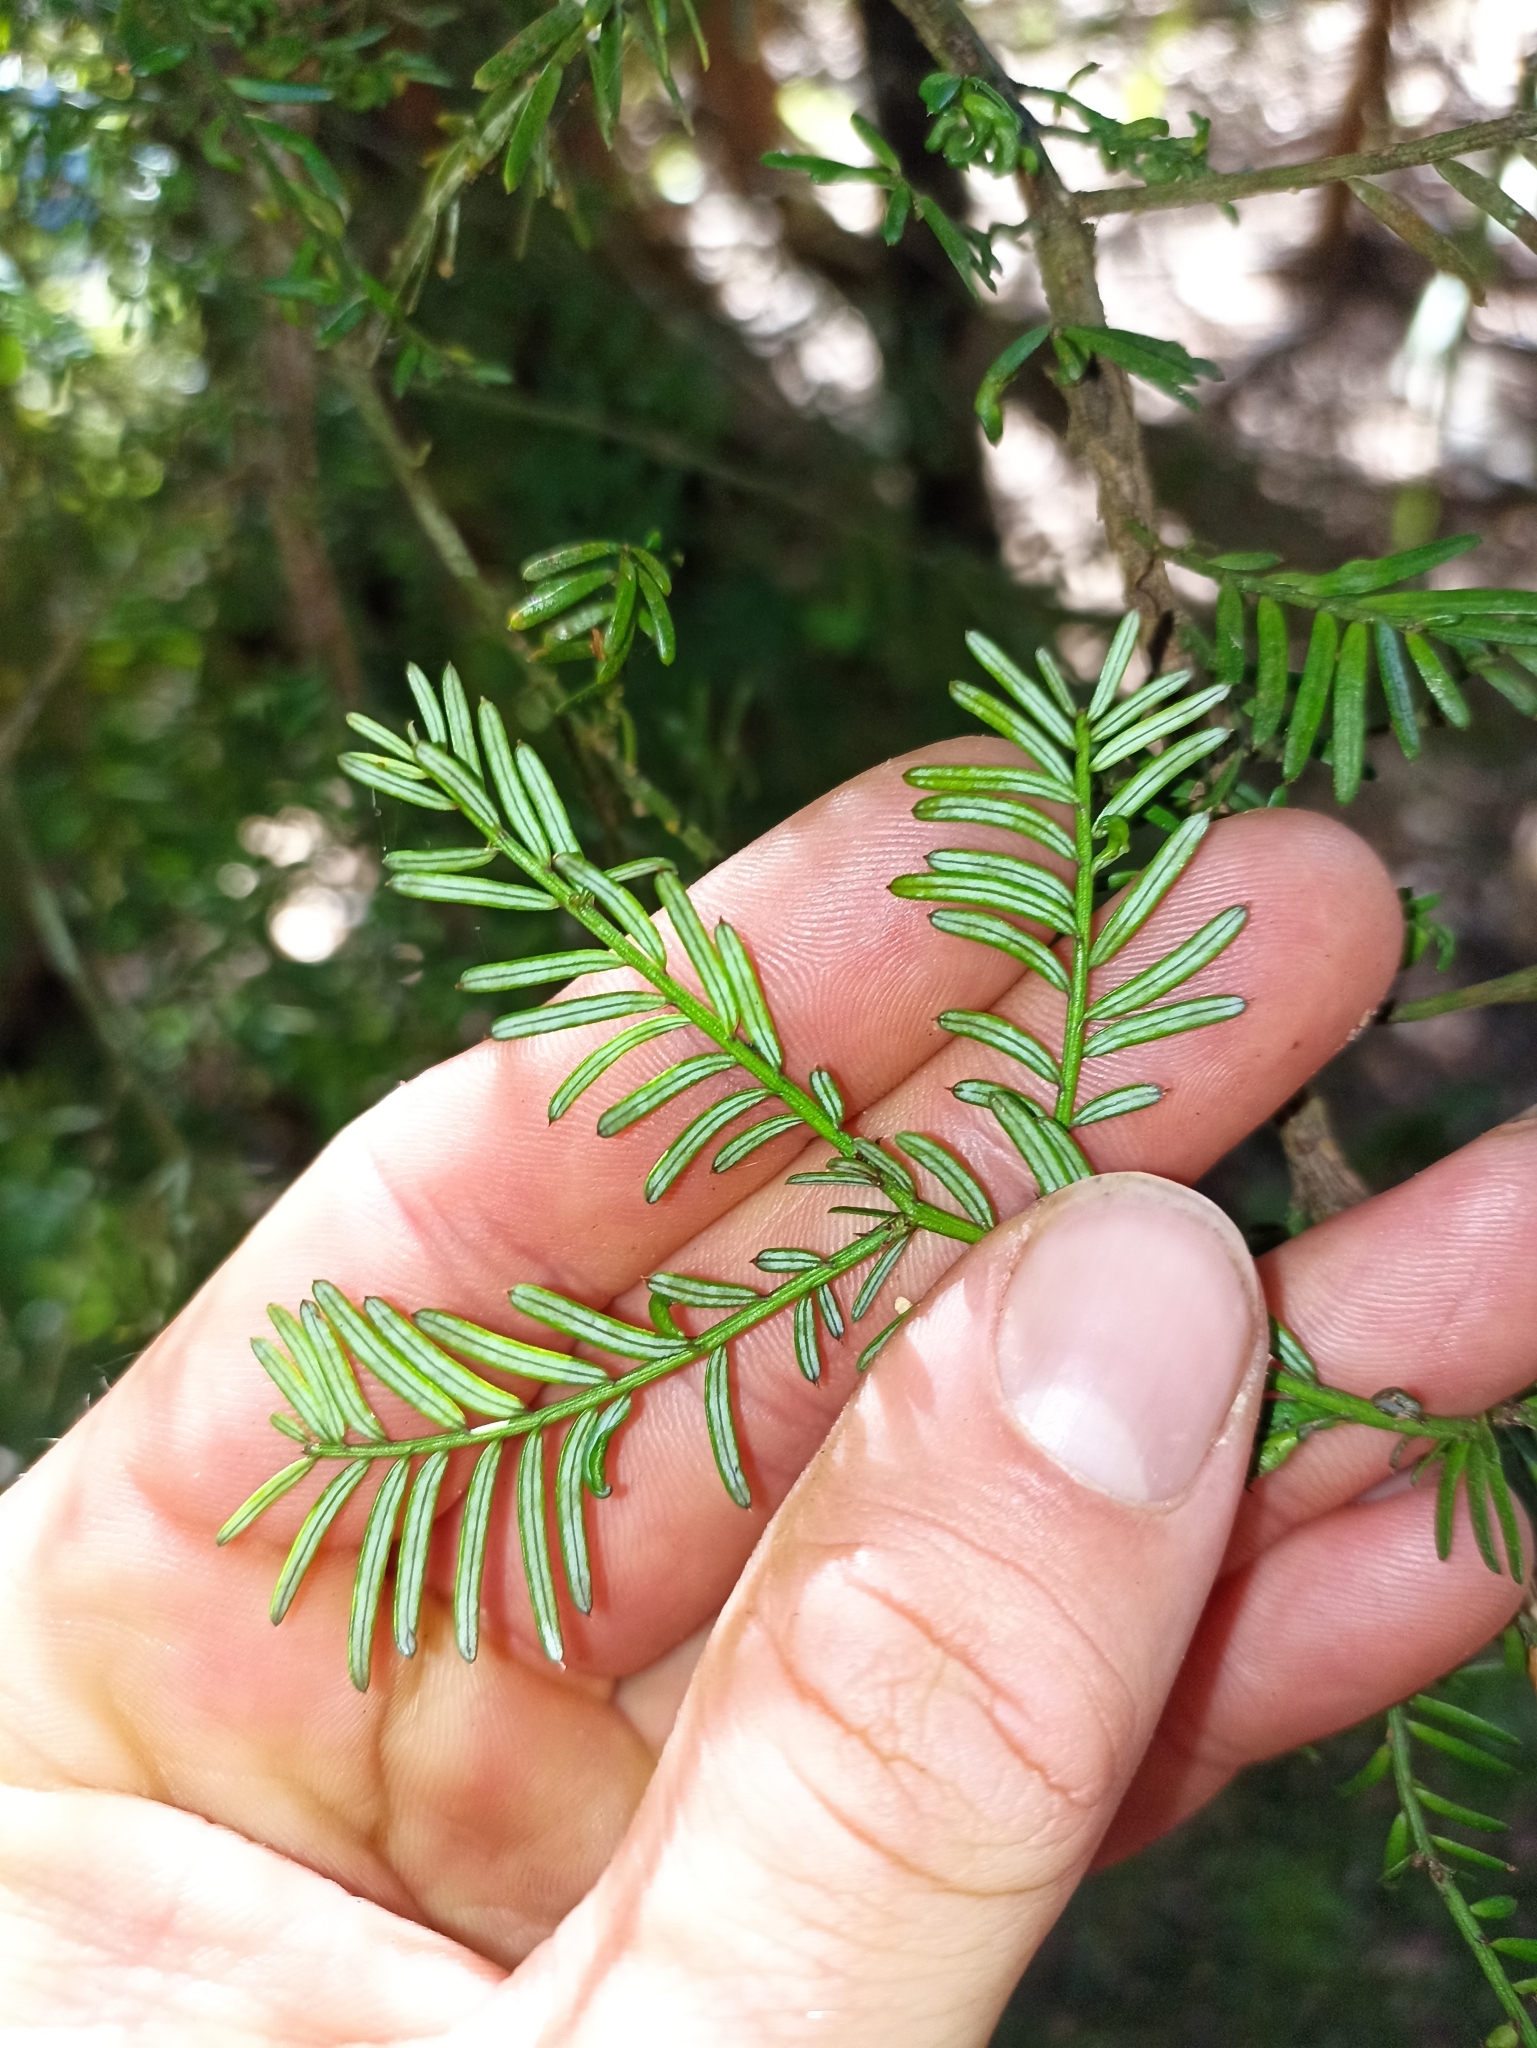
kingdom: Plantae
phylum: Tracheophyta
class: Pinopsida
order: Pinales
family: Podocarpaceae
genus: Prumnopitys
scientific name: Prumnopitys taxifolia
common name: Matai
